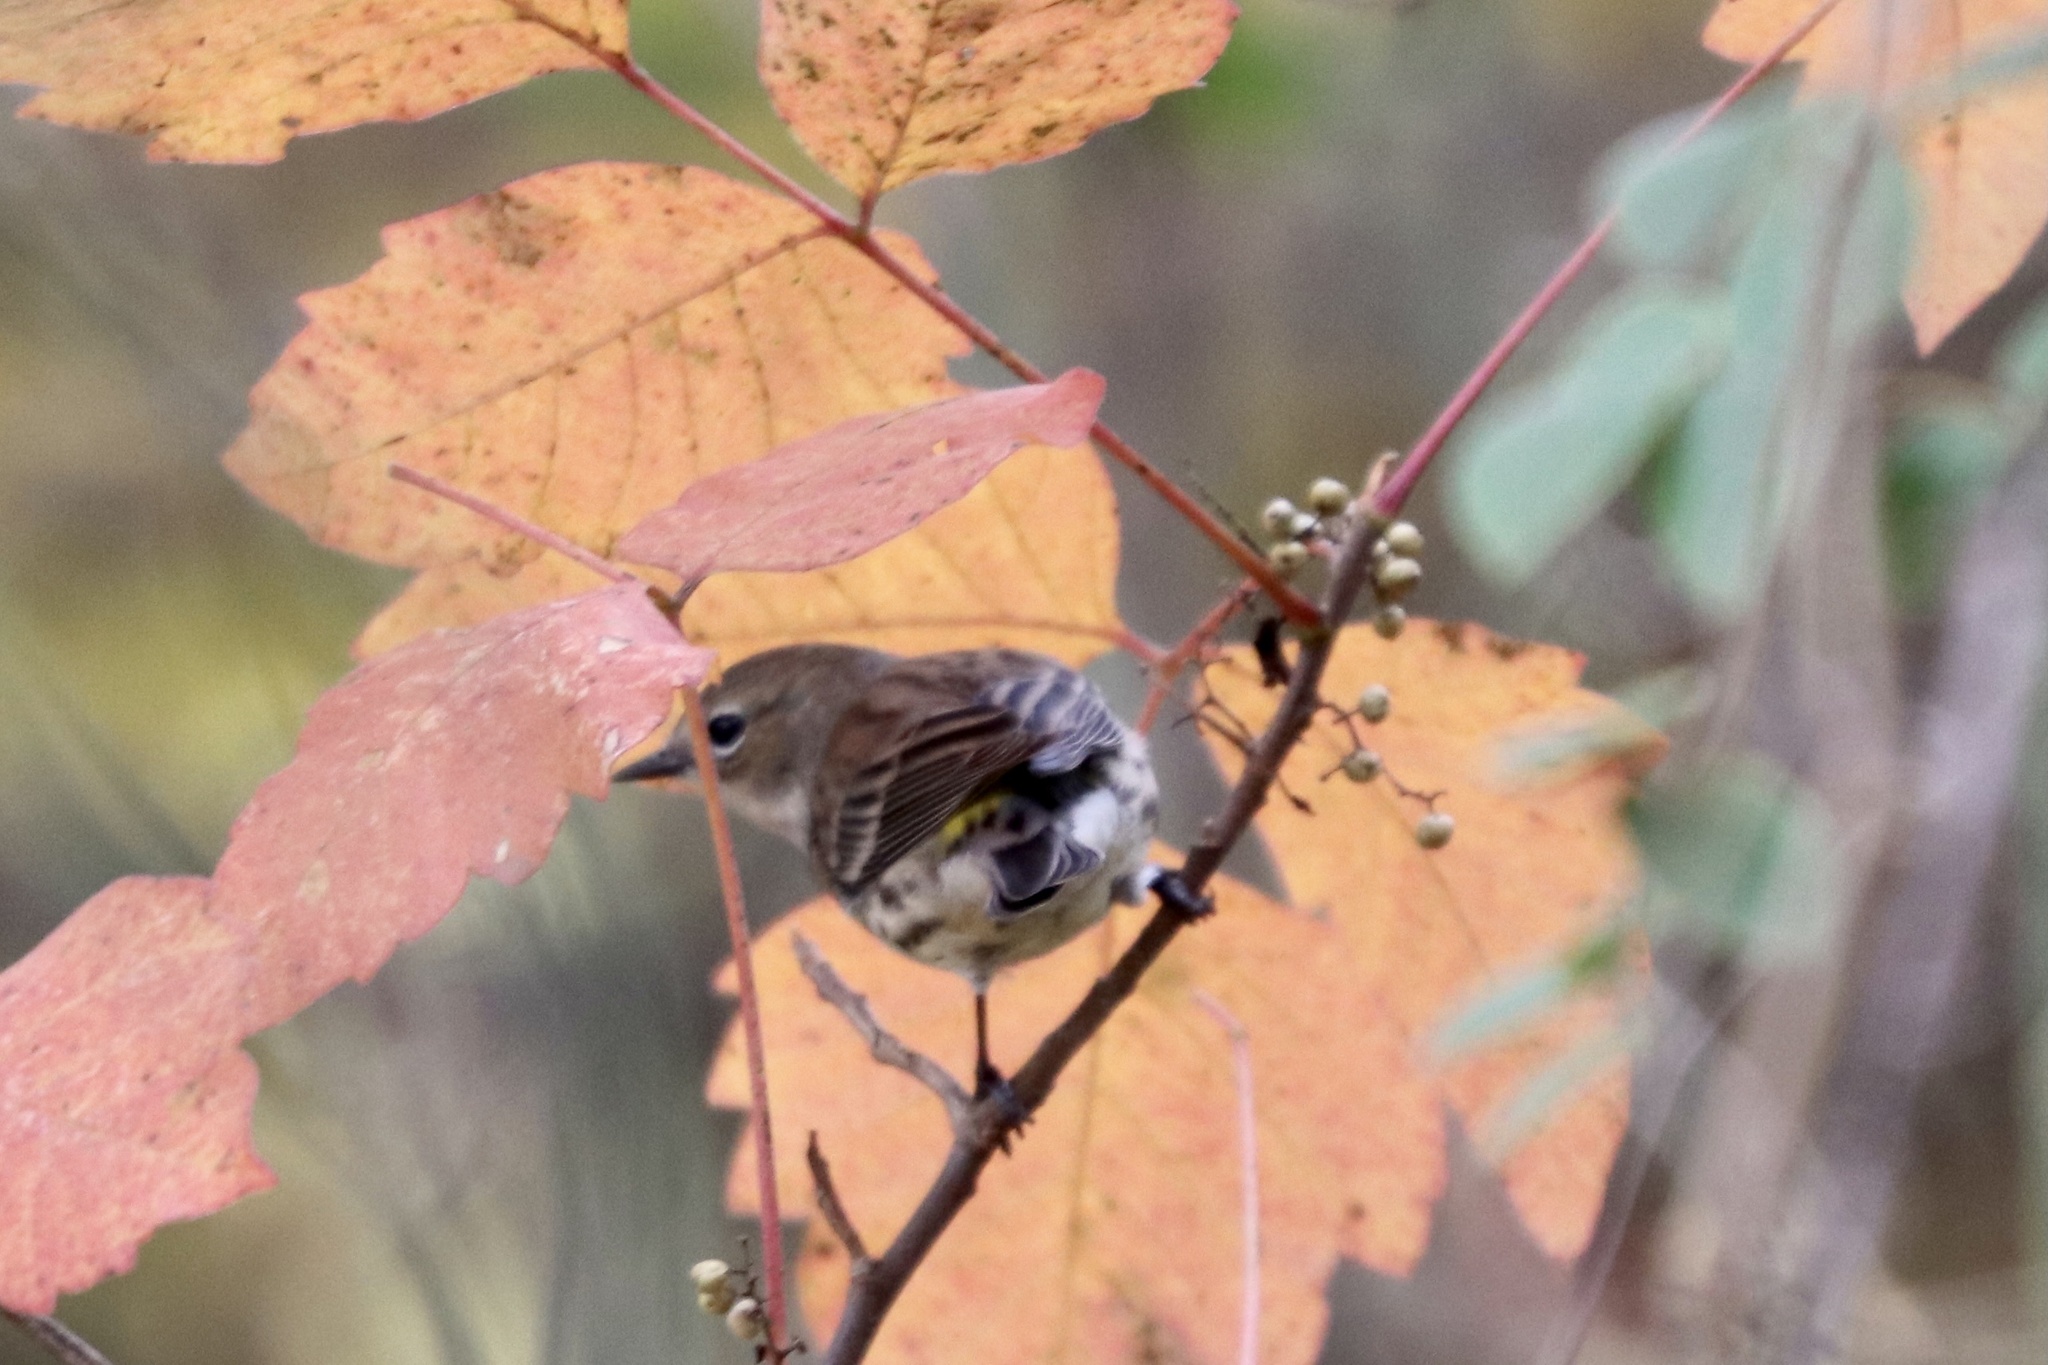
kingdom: Animalia
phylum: Chordata
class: Aves
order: Passeriformes
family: Parulidae
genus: Setophaga
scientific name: Setophaga coronata
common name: Myrtle warbler
